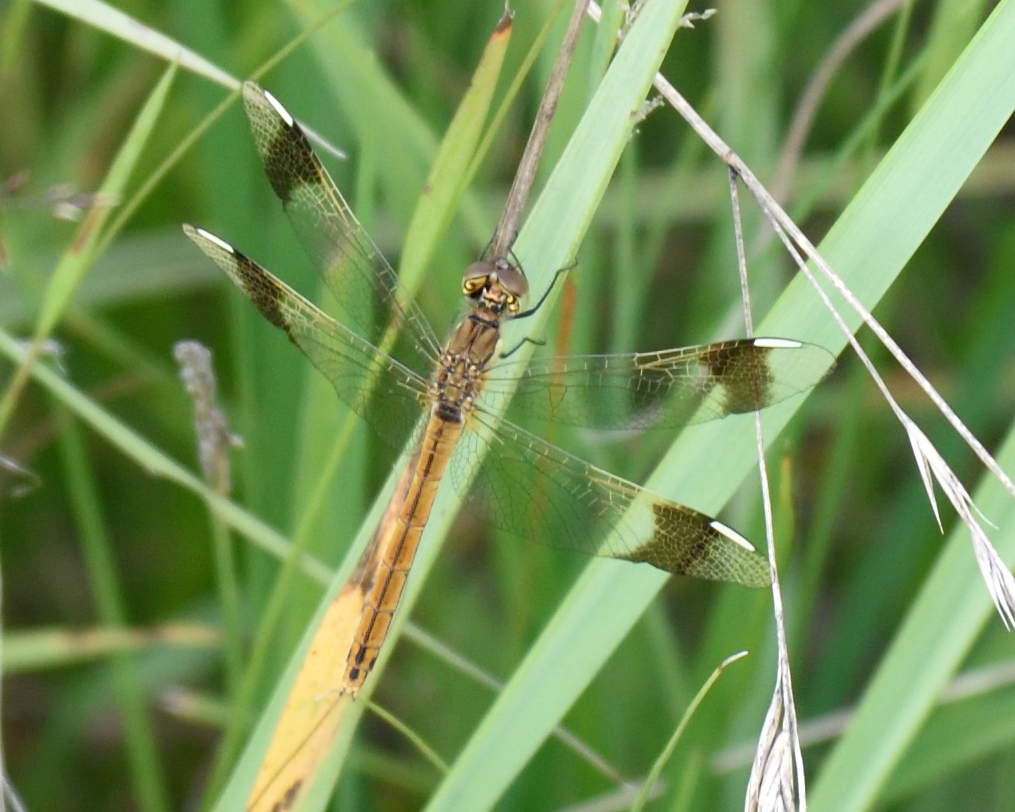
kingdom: Animalia
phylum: Arthropoda
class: Insecta
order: Odonata
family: Libellulidae
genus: Sympetrum
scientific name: Sympetrum pedemontanum
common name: Banded darter
